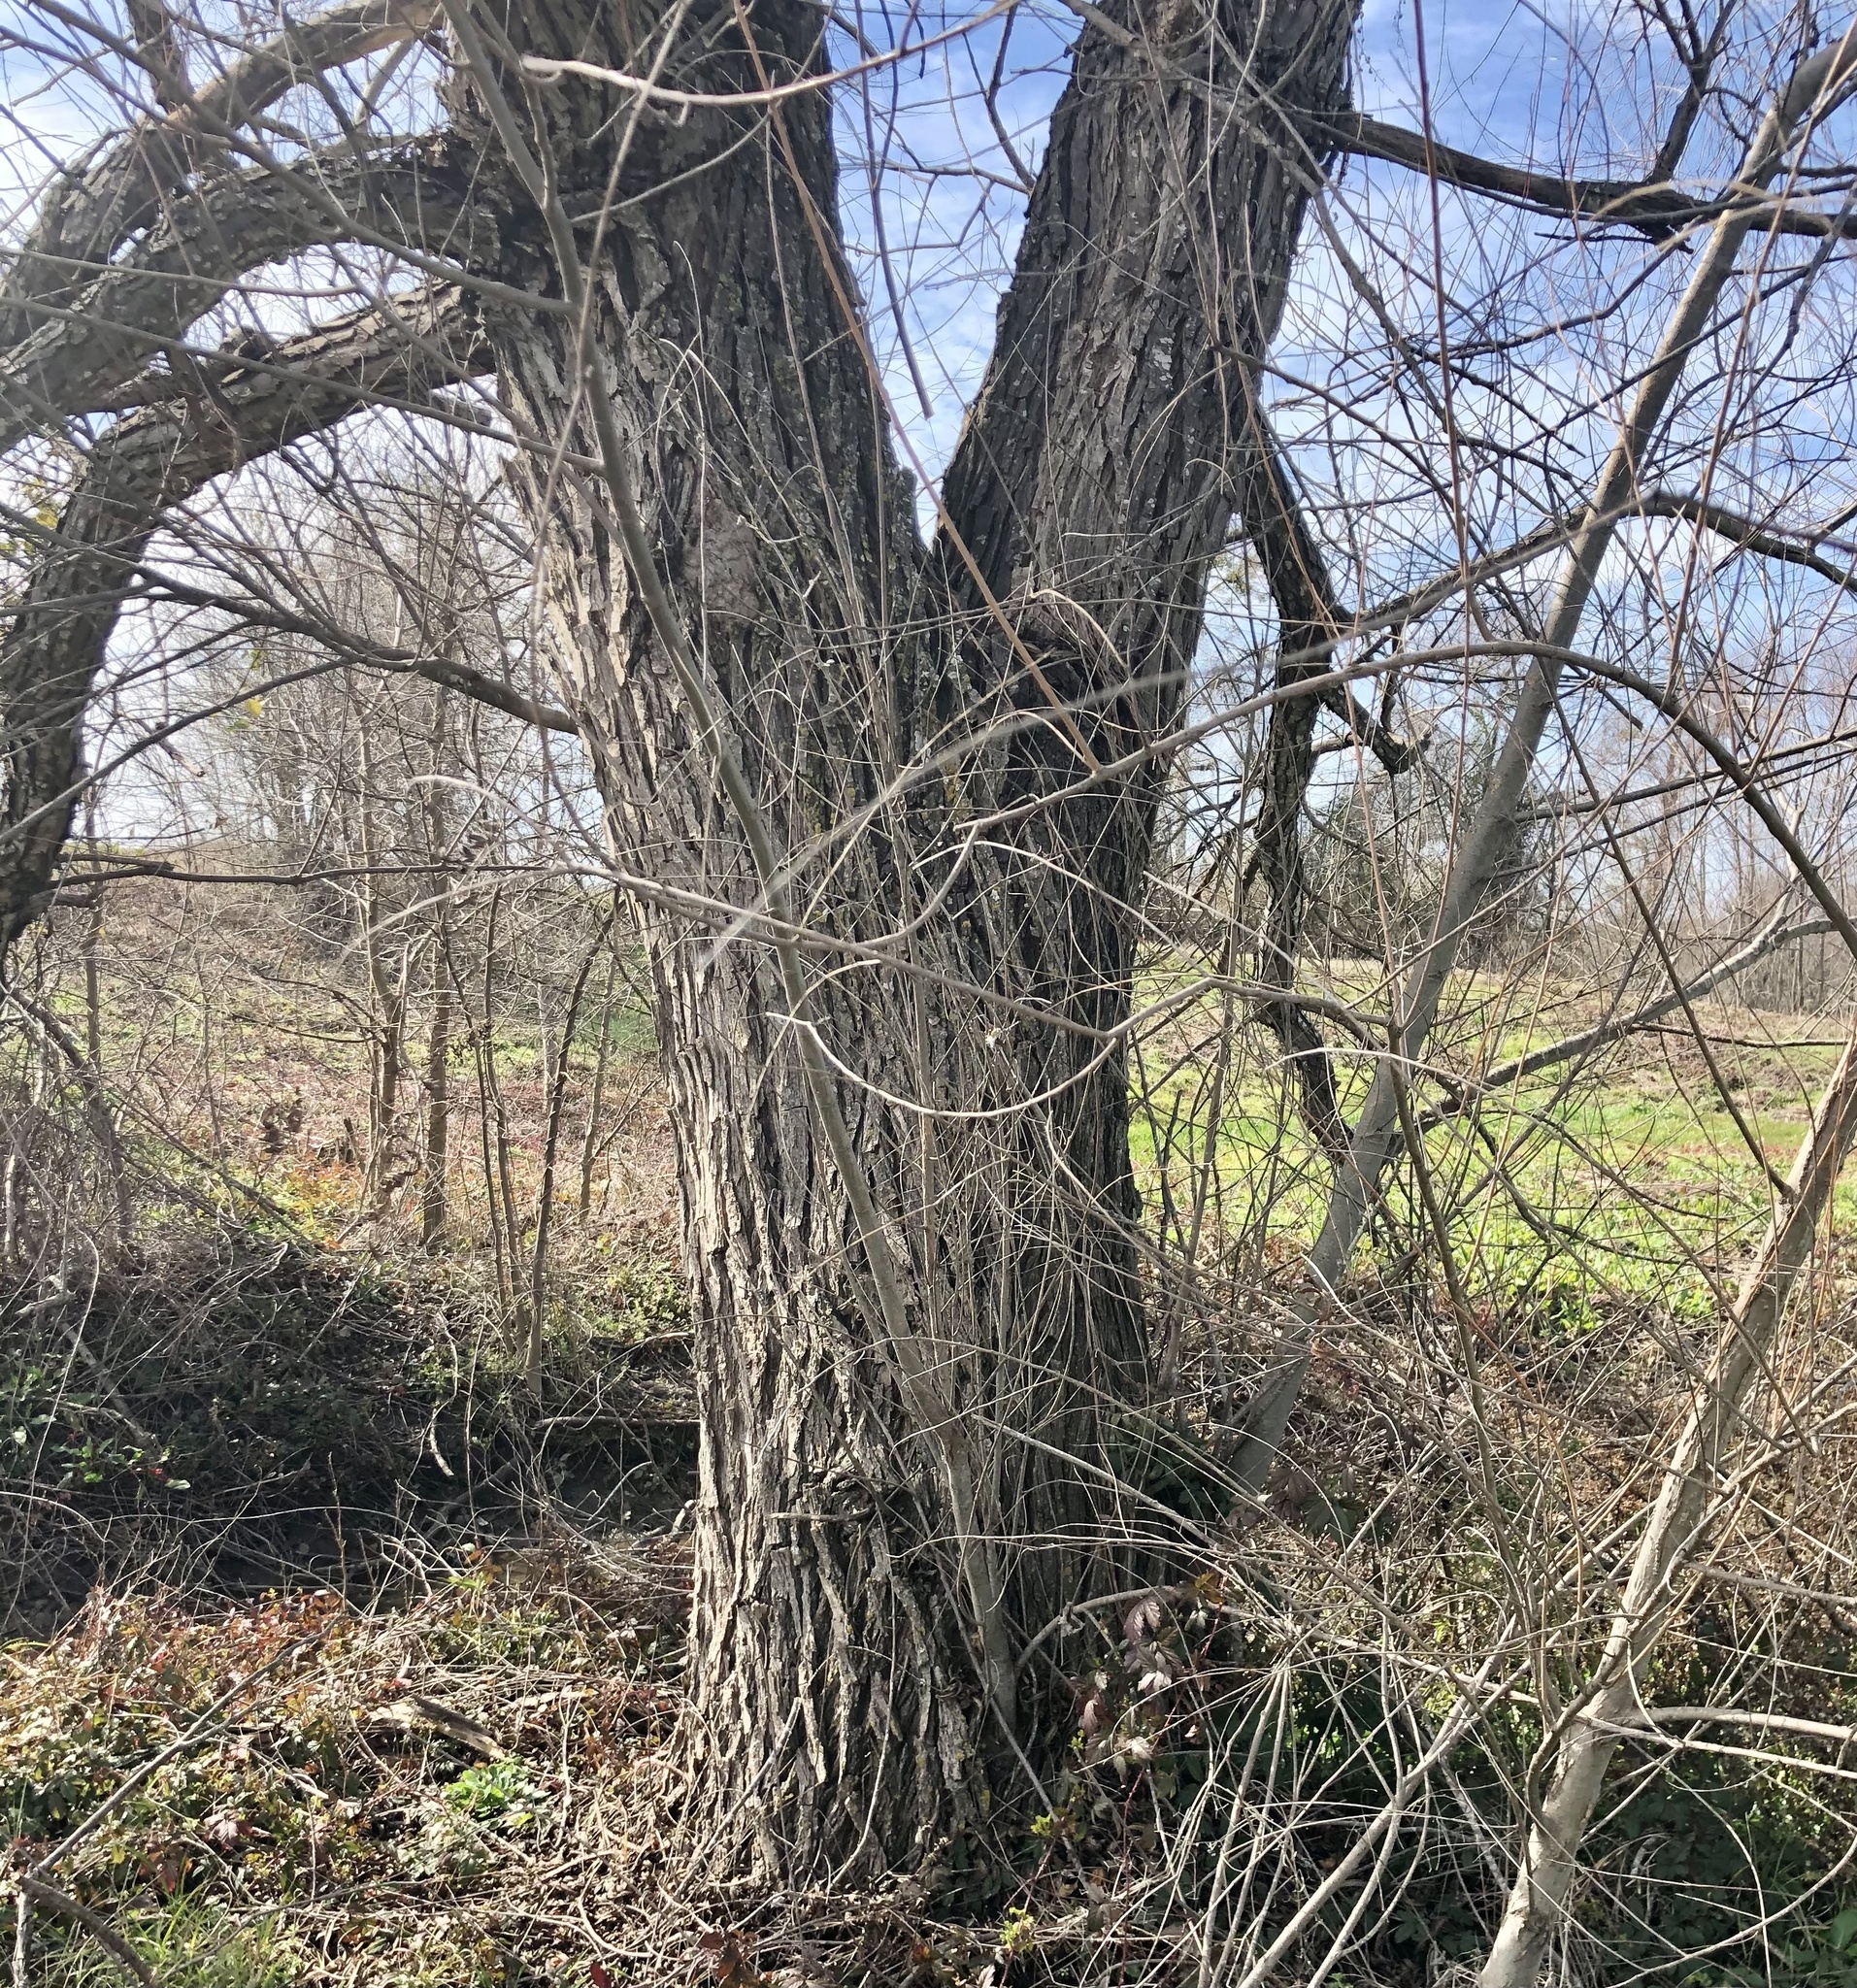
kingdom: Plantae
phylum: Tracheophyta
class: Magnoliopsida
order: Malpighiales
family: Salicaceae
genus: Salix
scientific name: Salix nigra
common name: Black willow
